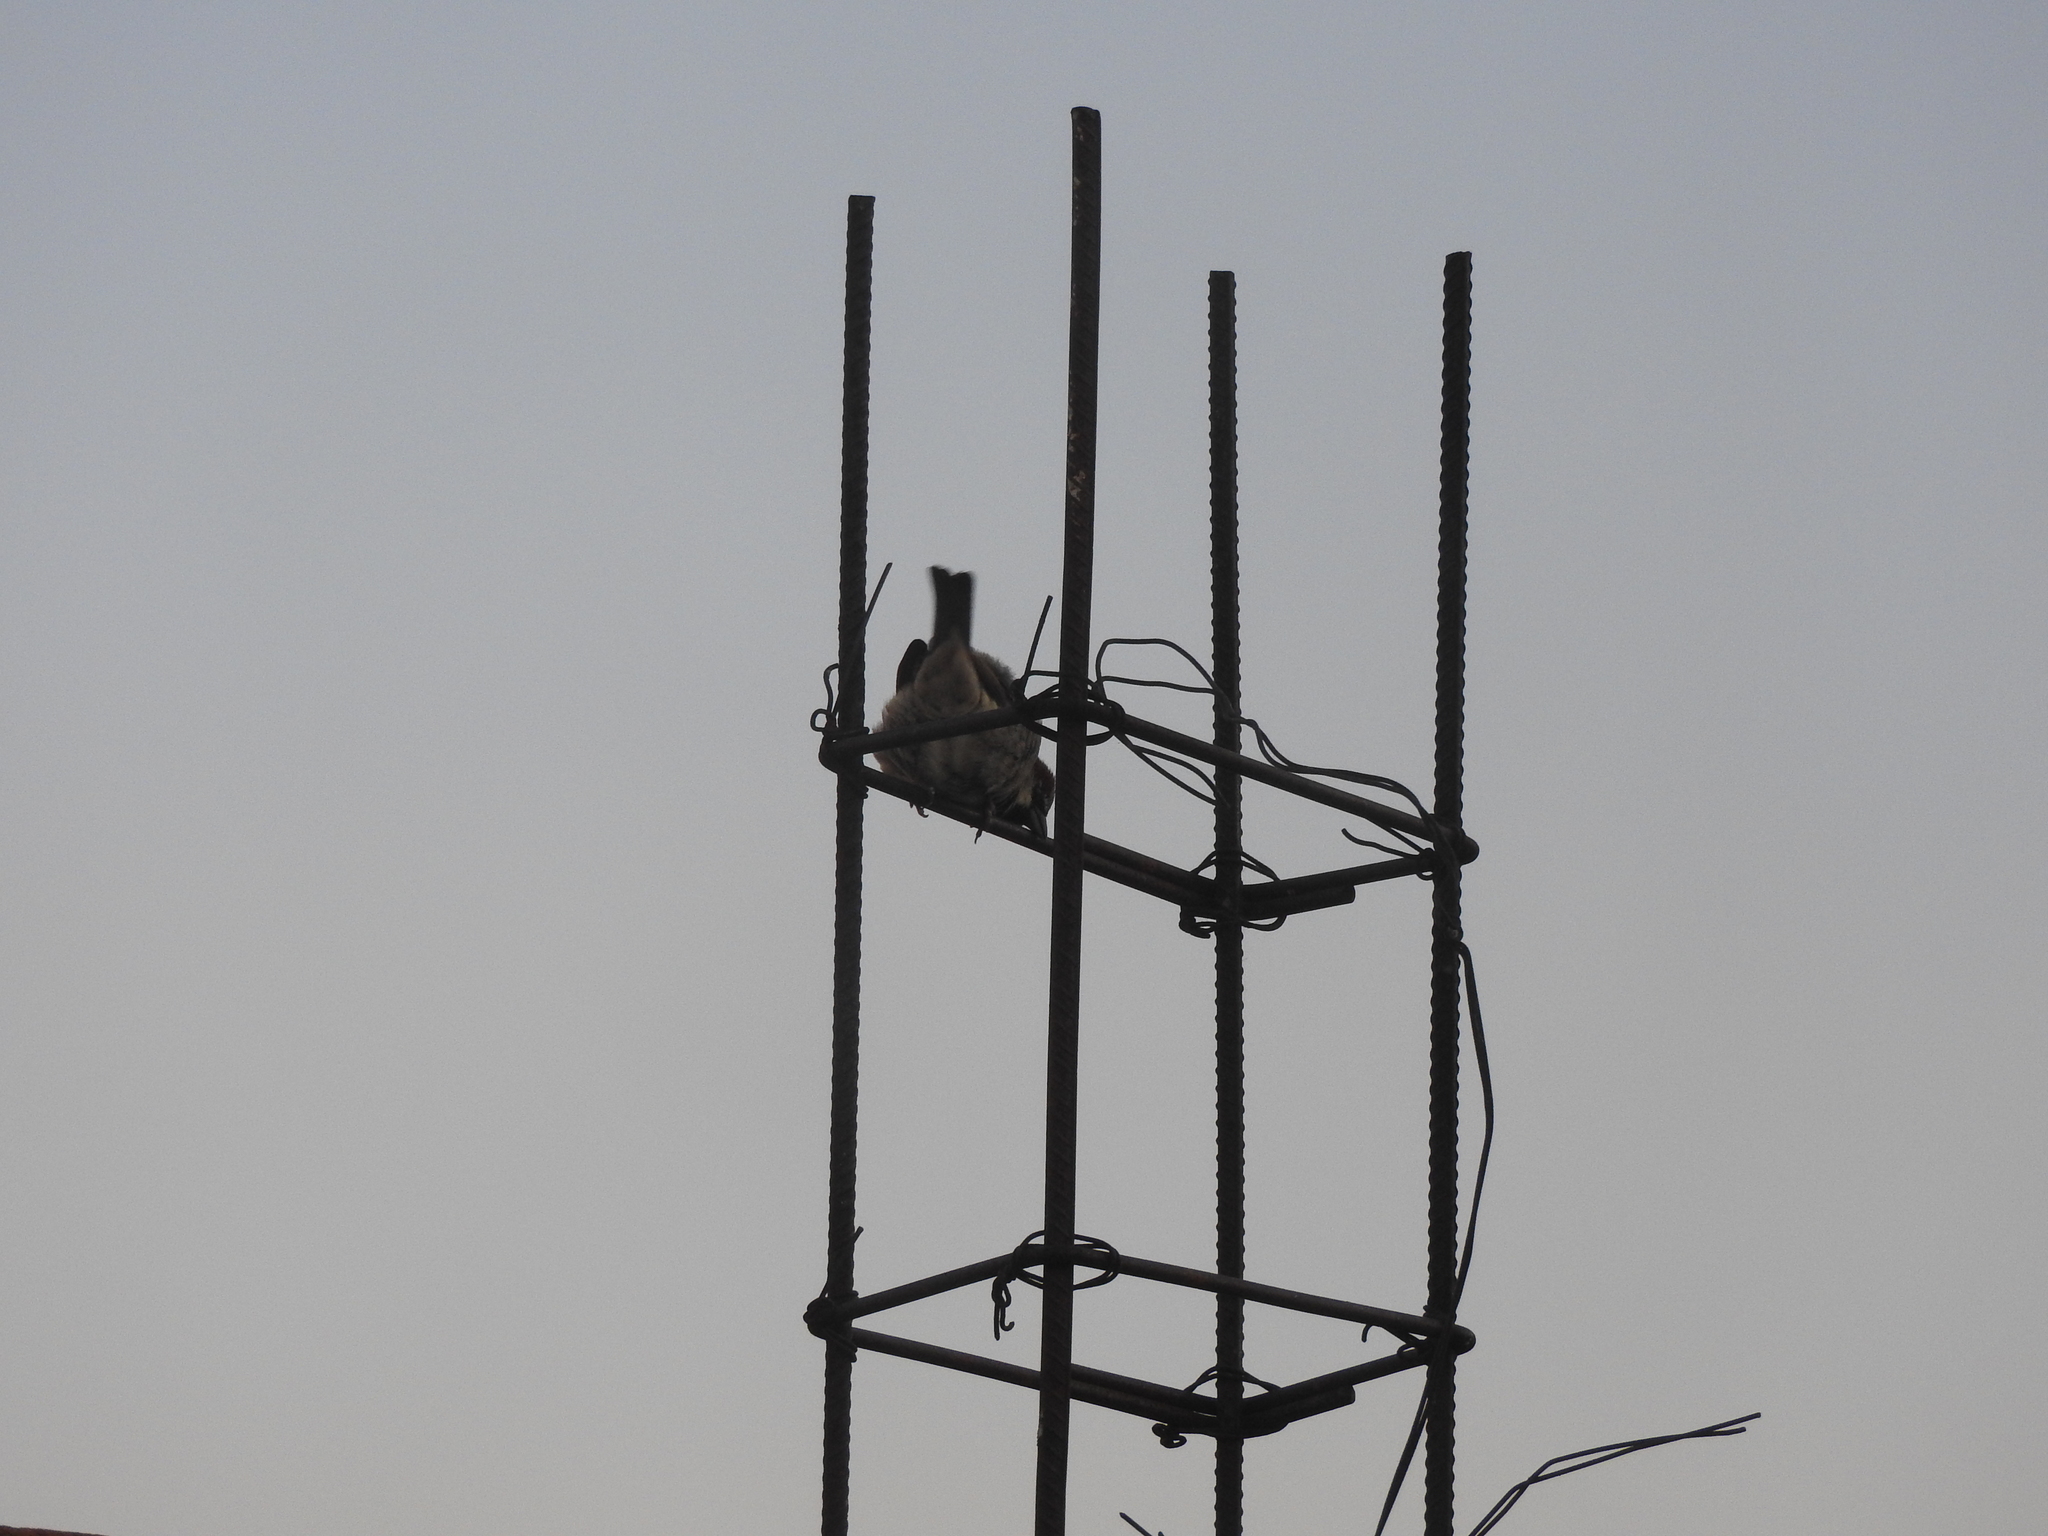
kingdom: Animalia
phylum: Chordata
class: Aves
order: Passeriformes
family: Passeridae
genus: Passer
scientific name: Passer domesticus
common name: House sparrow
